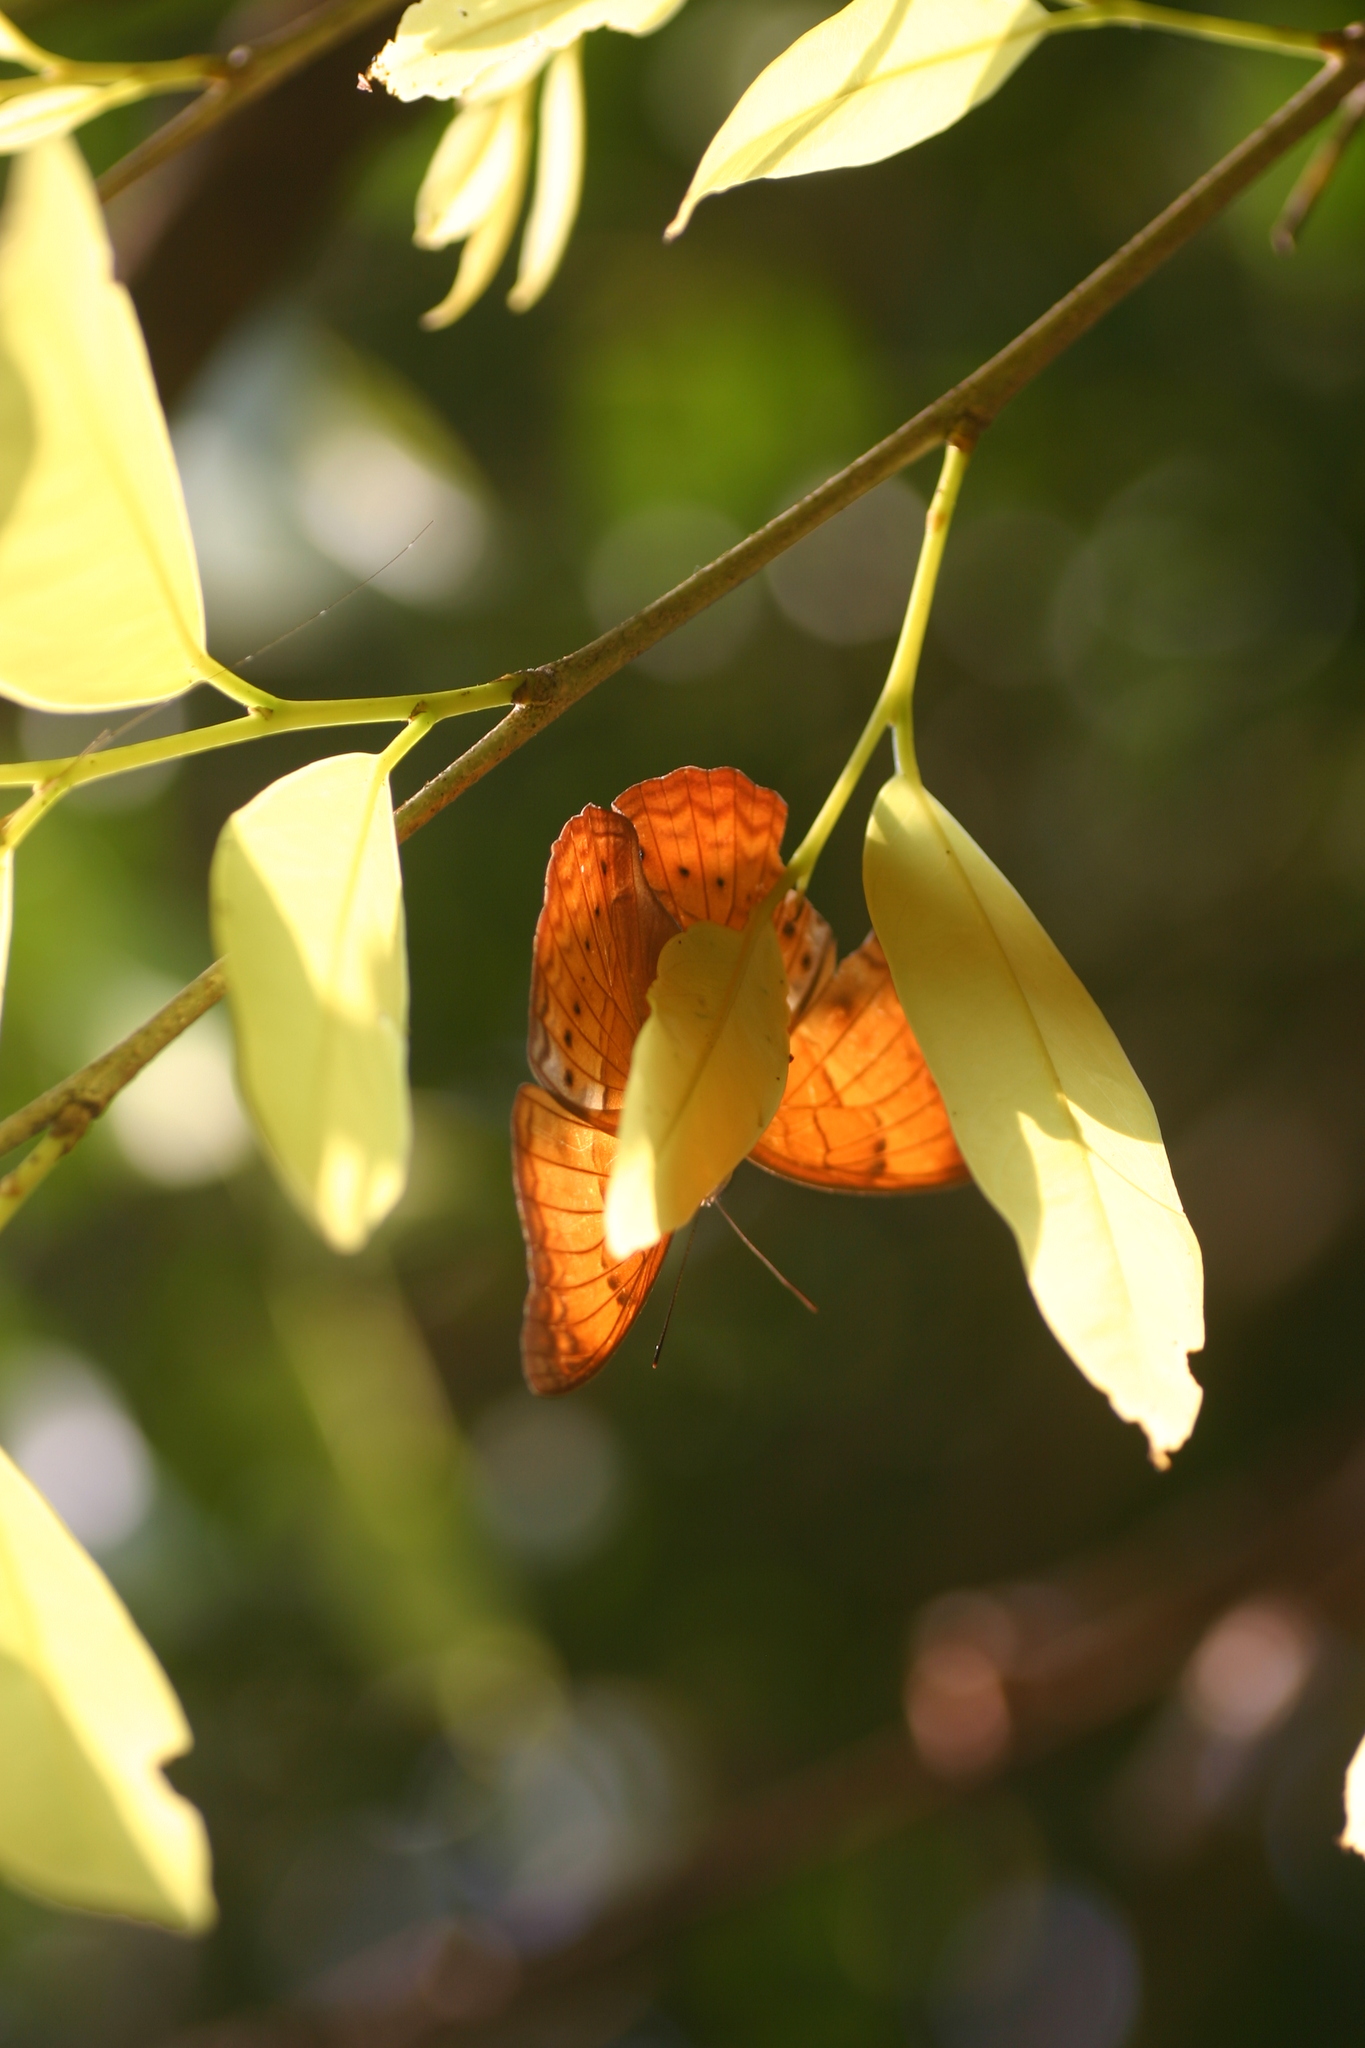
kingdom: Animalia
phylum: Arthropoda
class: Insecta
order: Lepidoptera
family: Nymphalidae
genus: Cirrochroa
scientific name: Cirrochroa thais
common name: Tamil yeoman
